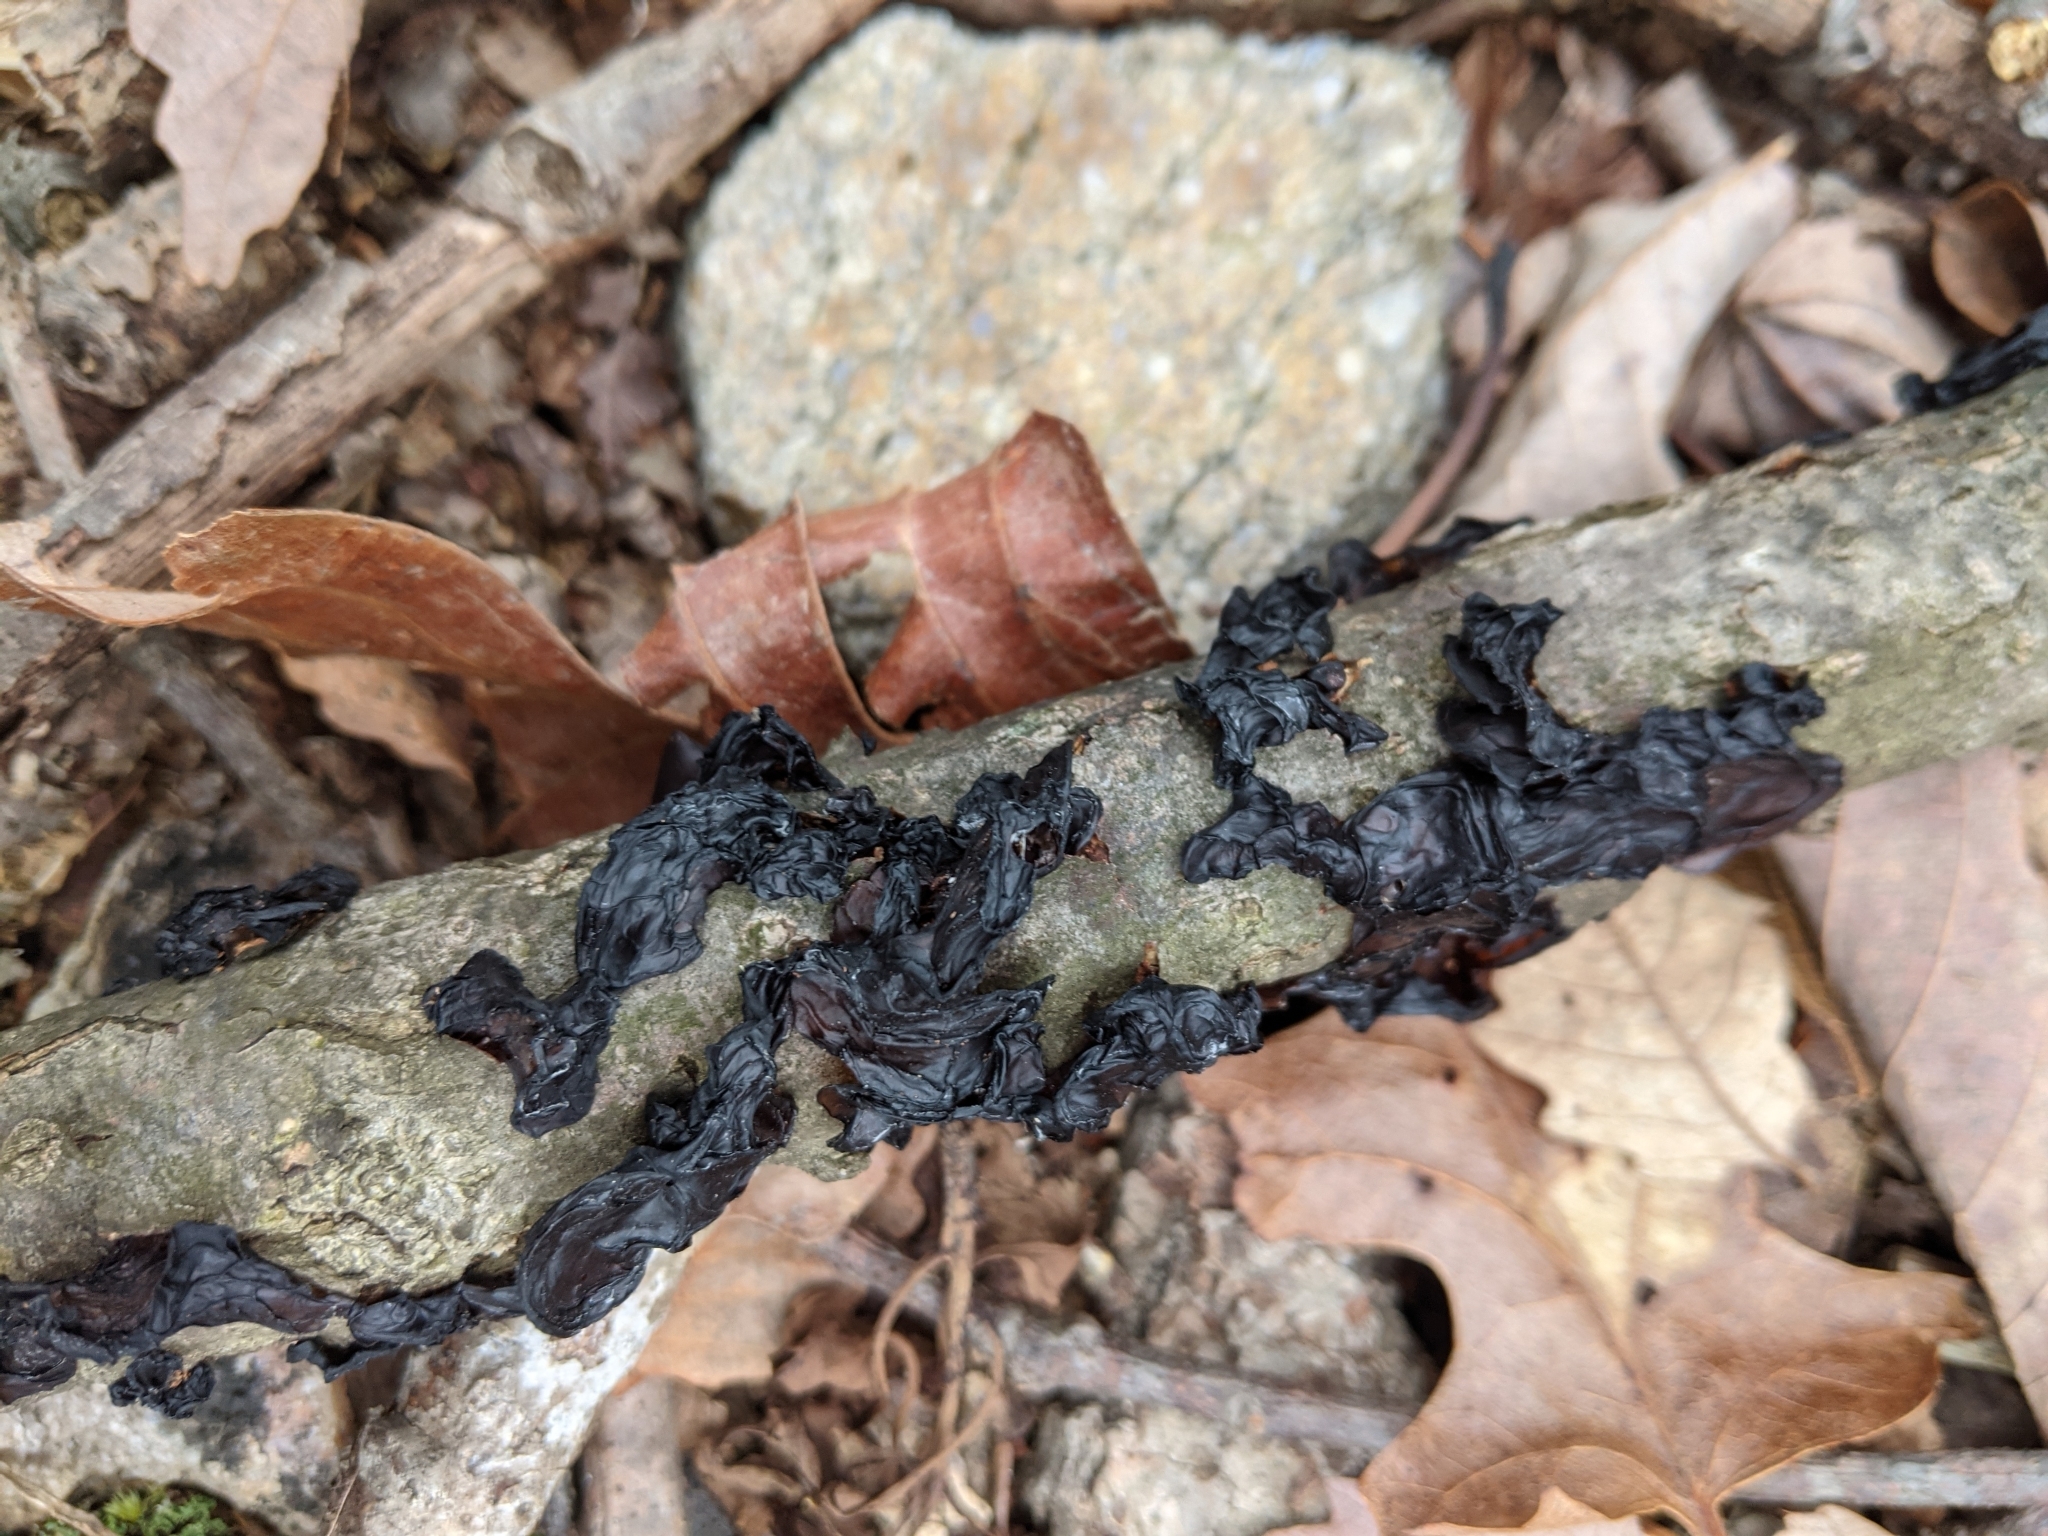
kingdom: Fungi
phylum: Basidiomycota
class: Agaricomycetes
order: Auriculariales
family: Auriculariaceae
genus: Exidia
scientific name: Exidia glandulosa
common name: Witches' butter
